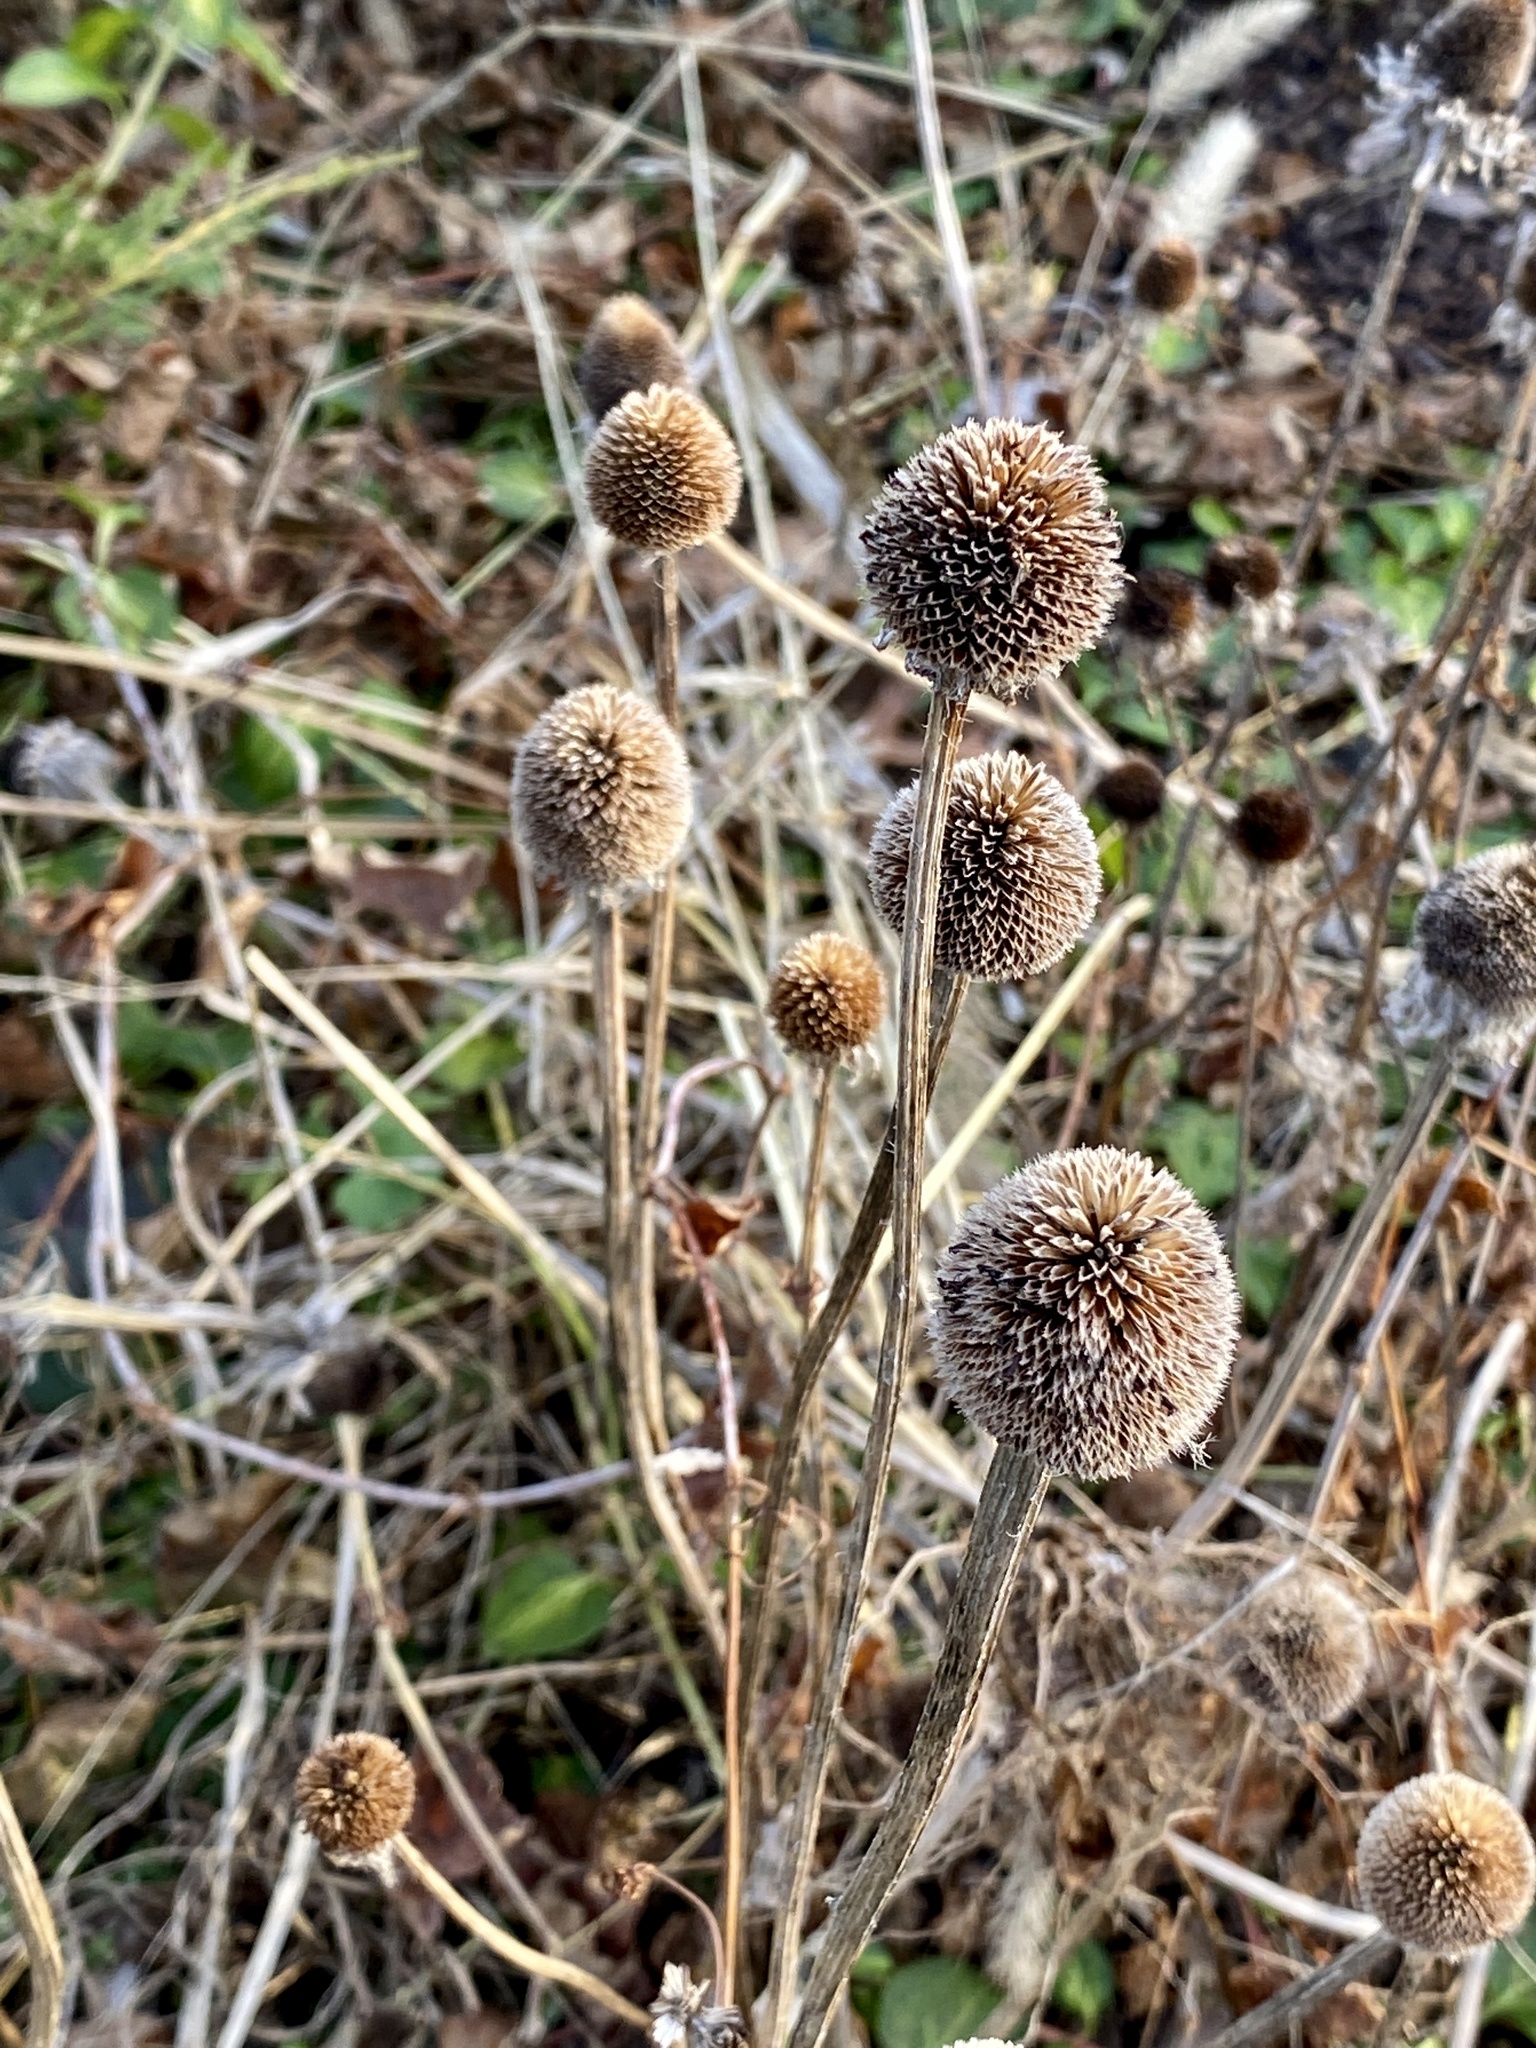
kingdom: Plantae
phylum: Tracheophyta
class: Magnoliopsida
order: Asterales
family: Asteraceae
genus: Rudbeckia
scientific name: Rudbeckia hirta
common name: Black-eyed-susan
